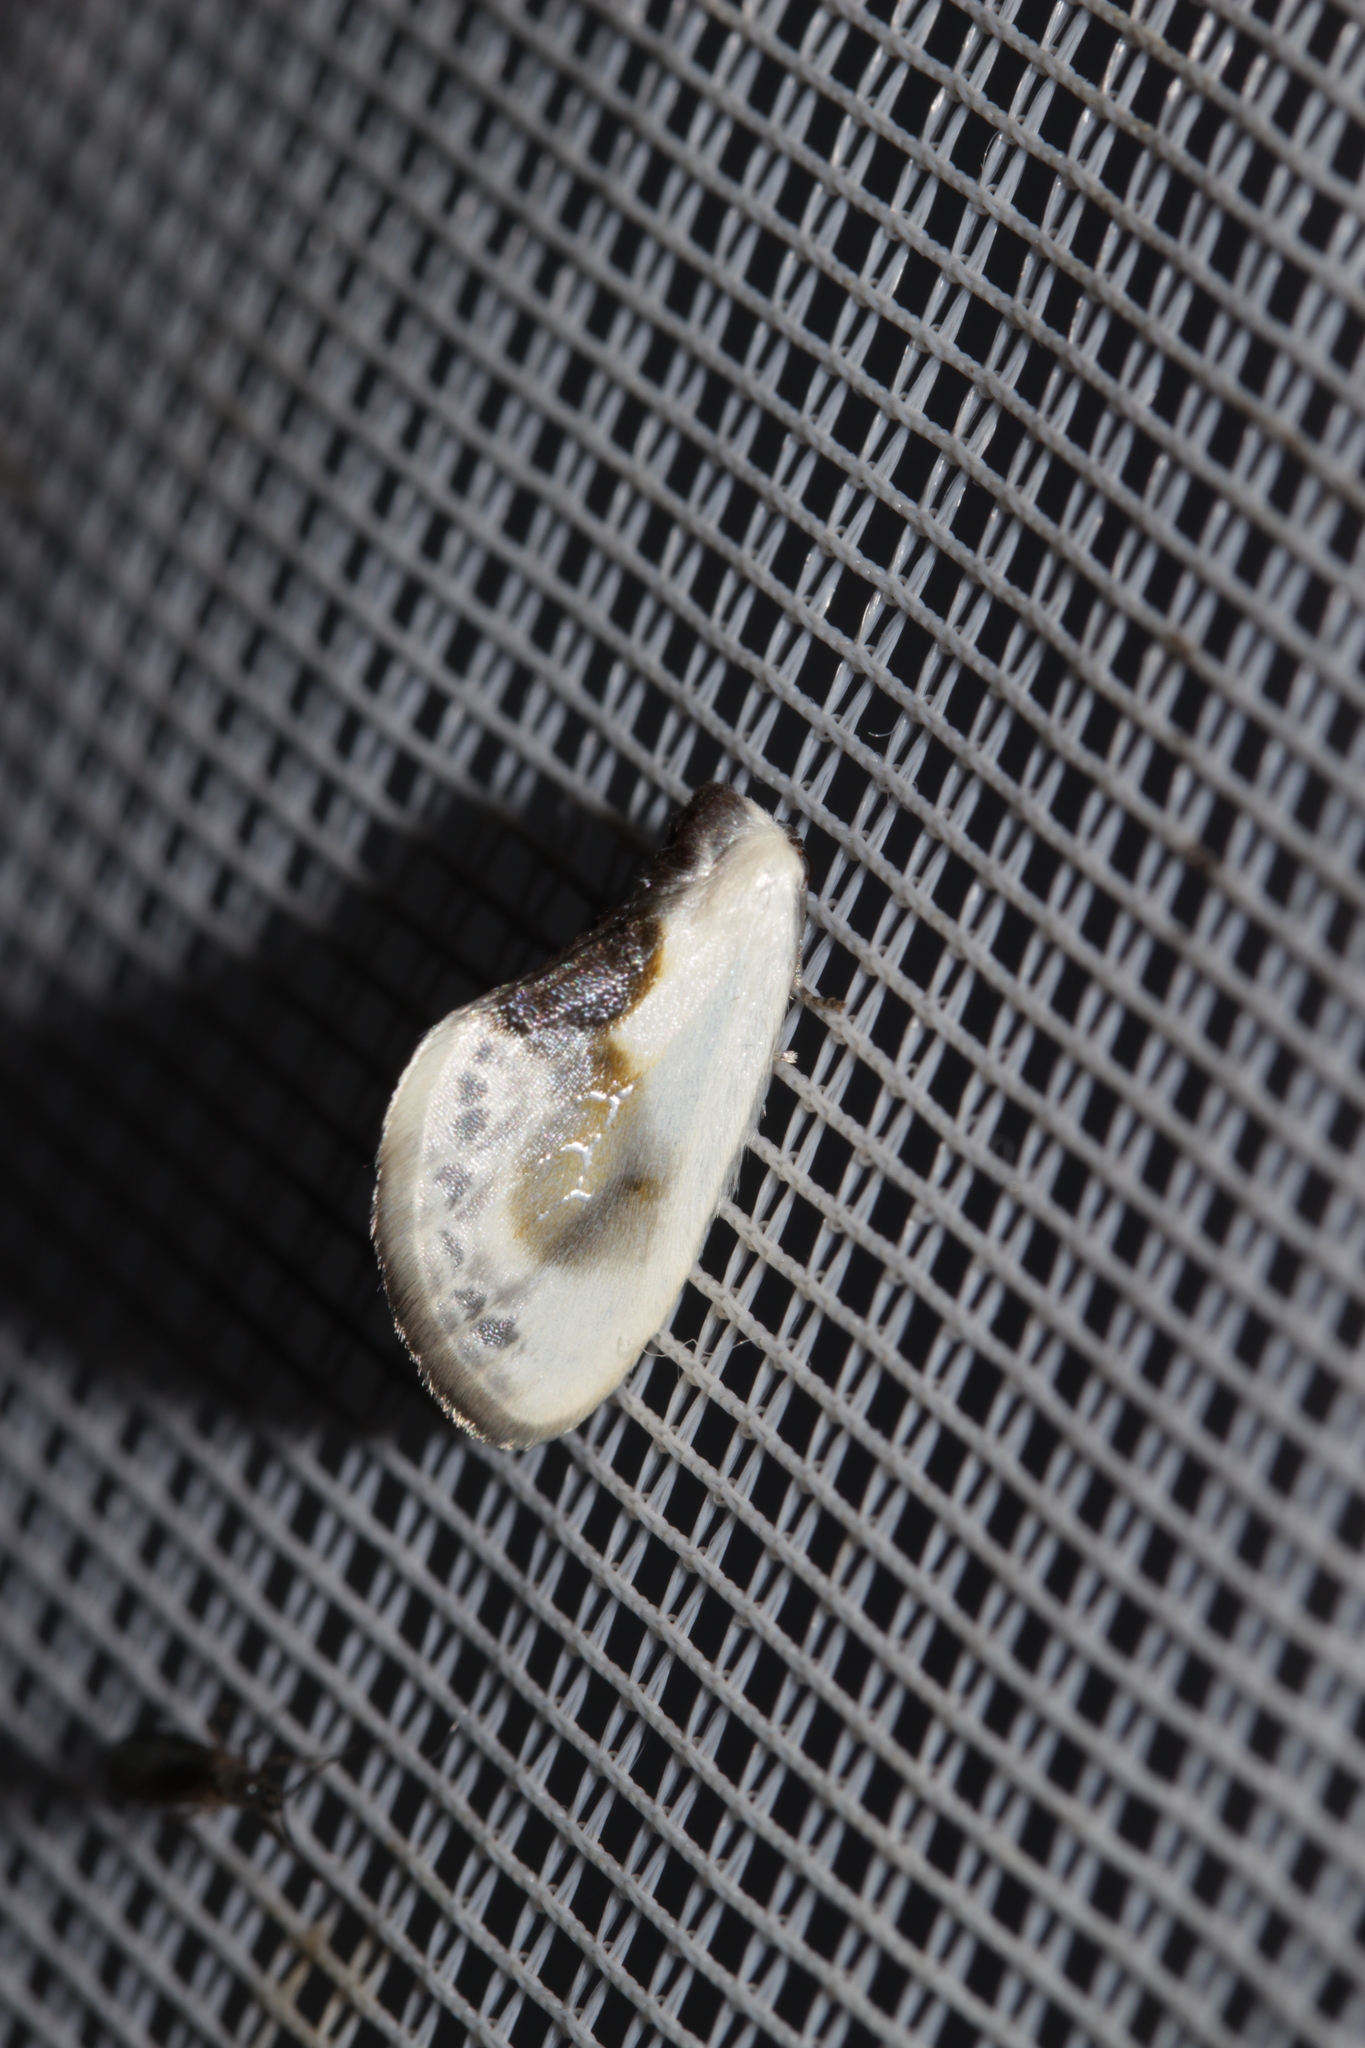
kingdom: Animalia
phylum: Arthropoda
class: Insecta
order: Lepidoptera
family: Drepanidae
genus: Cilix
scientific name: Cilix glaucata
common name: Chinese character
